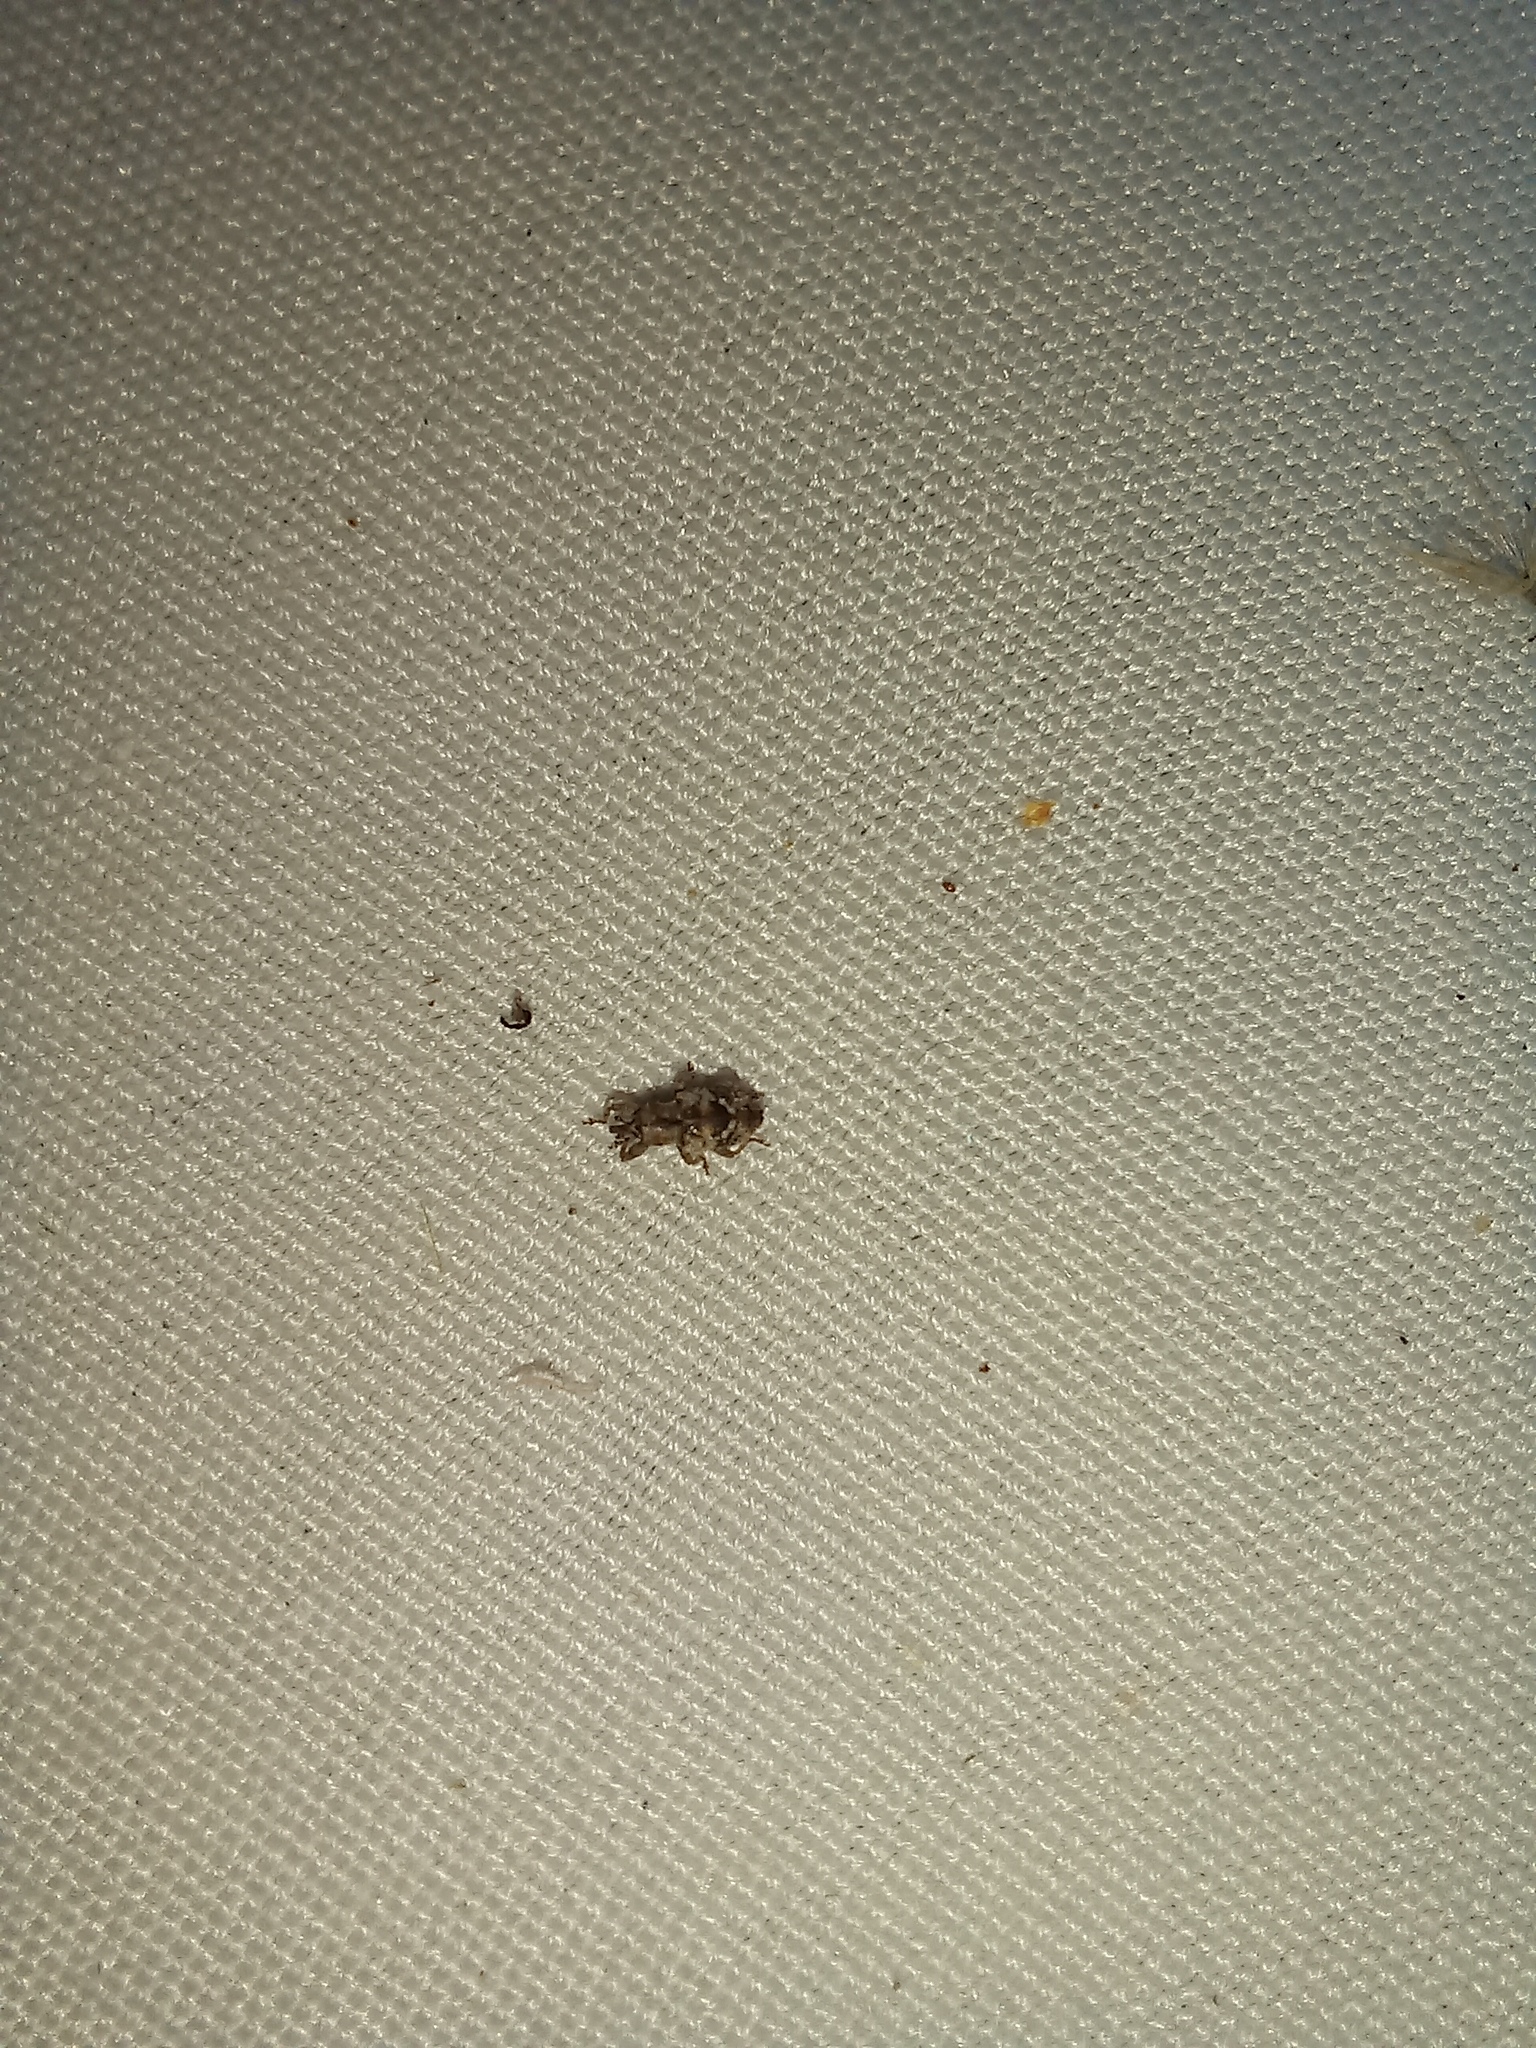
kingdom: Animalia
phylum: Arthropoda
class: Insecta
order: Coleoptera
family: Curculionidae
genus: Praolepra
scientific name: Praolepra infusca
